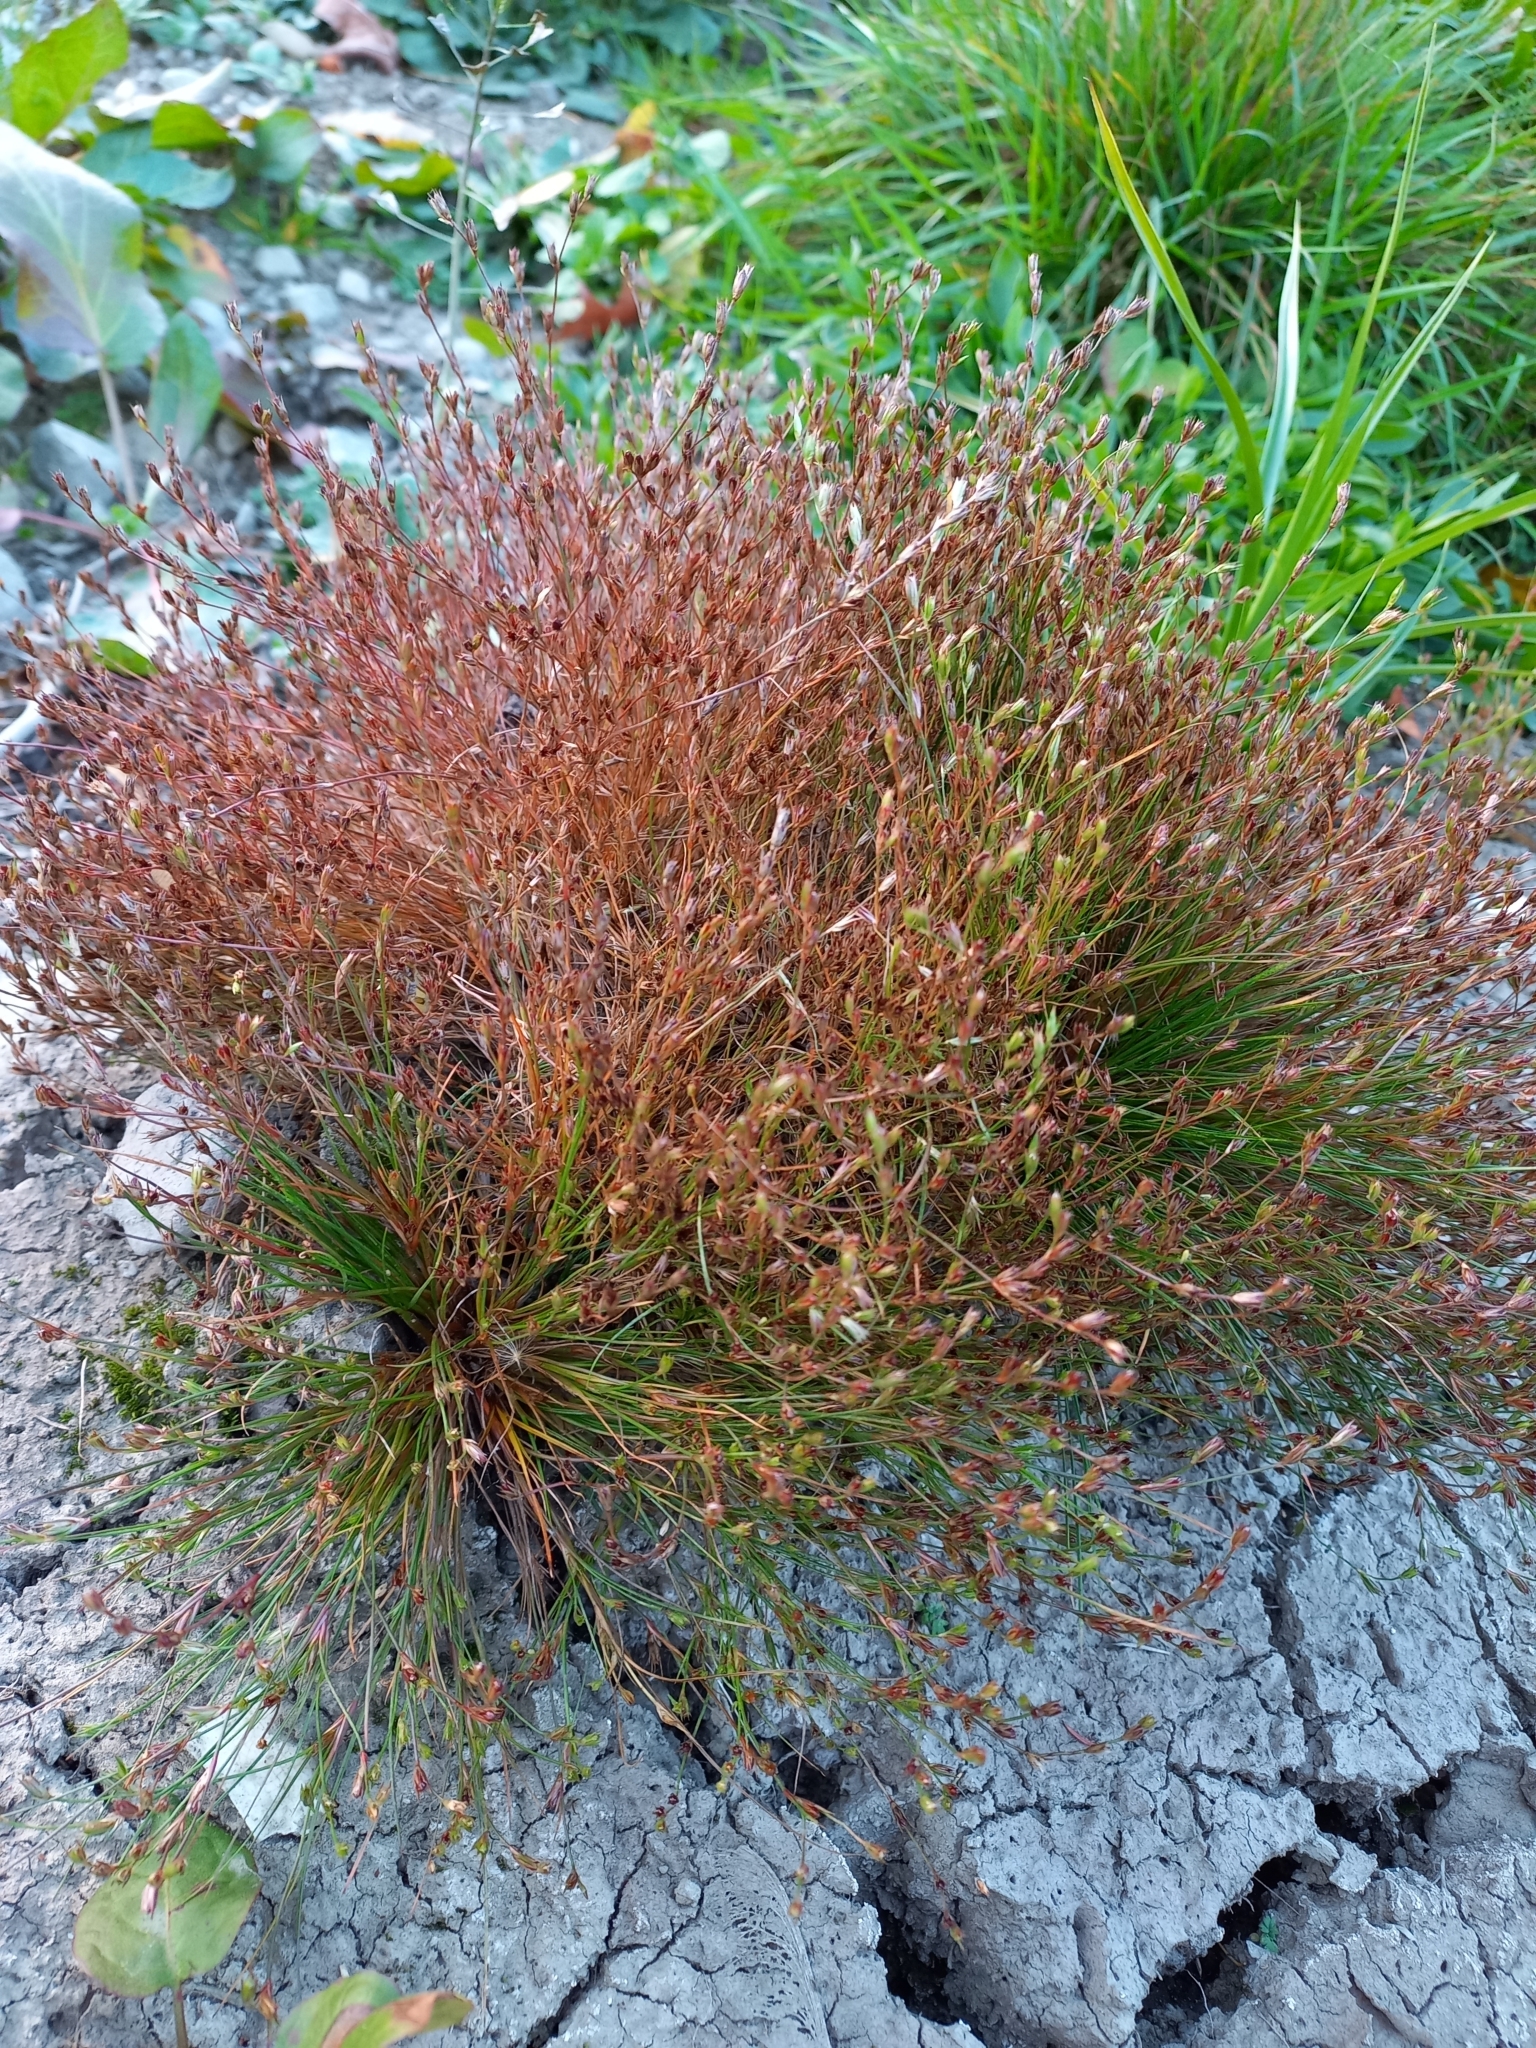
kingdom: Plantae
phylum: Tracheophyta
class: Liliopsida
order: Poales
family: Juncaceae
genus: Juncus
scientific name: Juncus bufonius
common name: Toad rush
